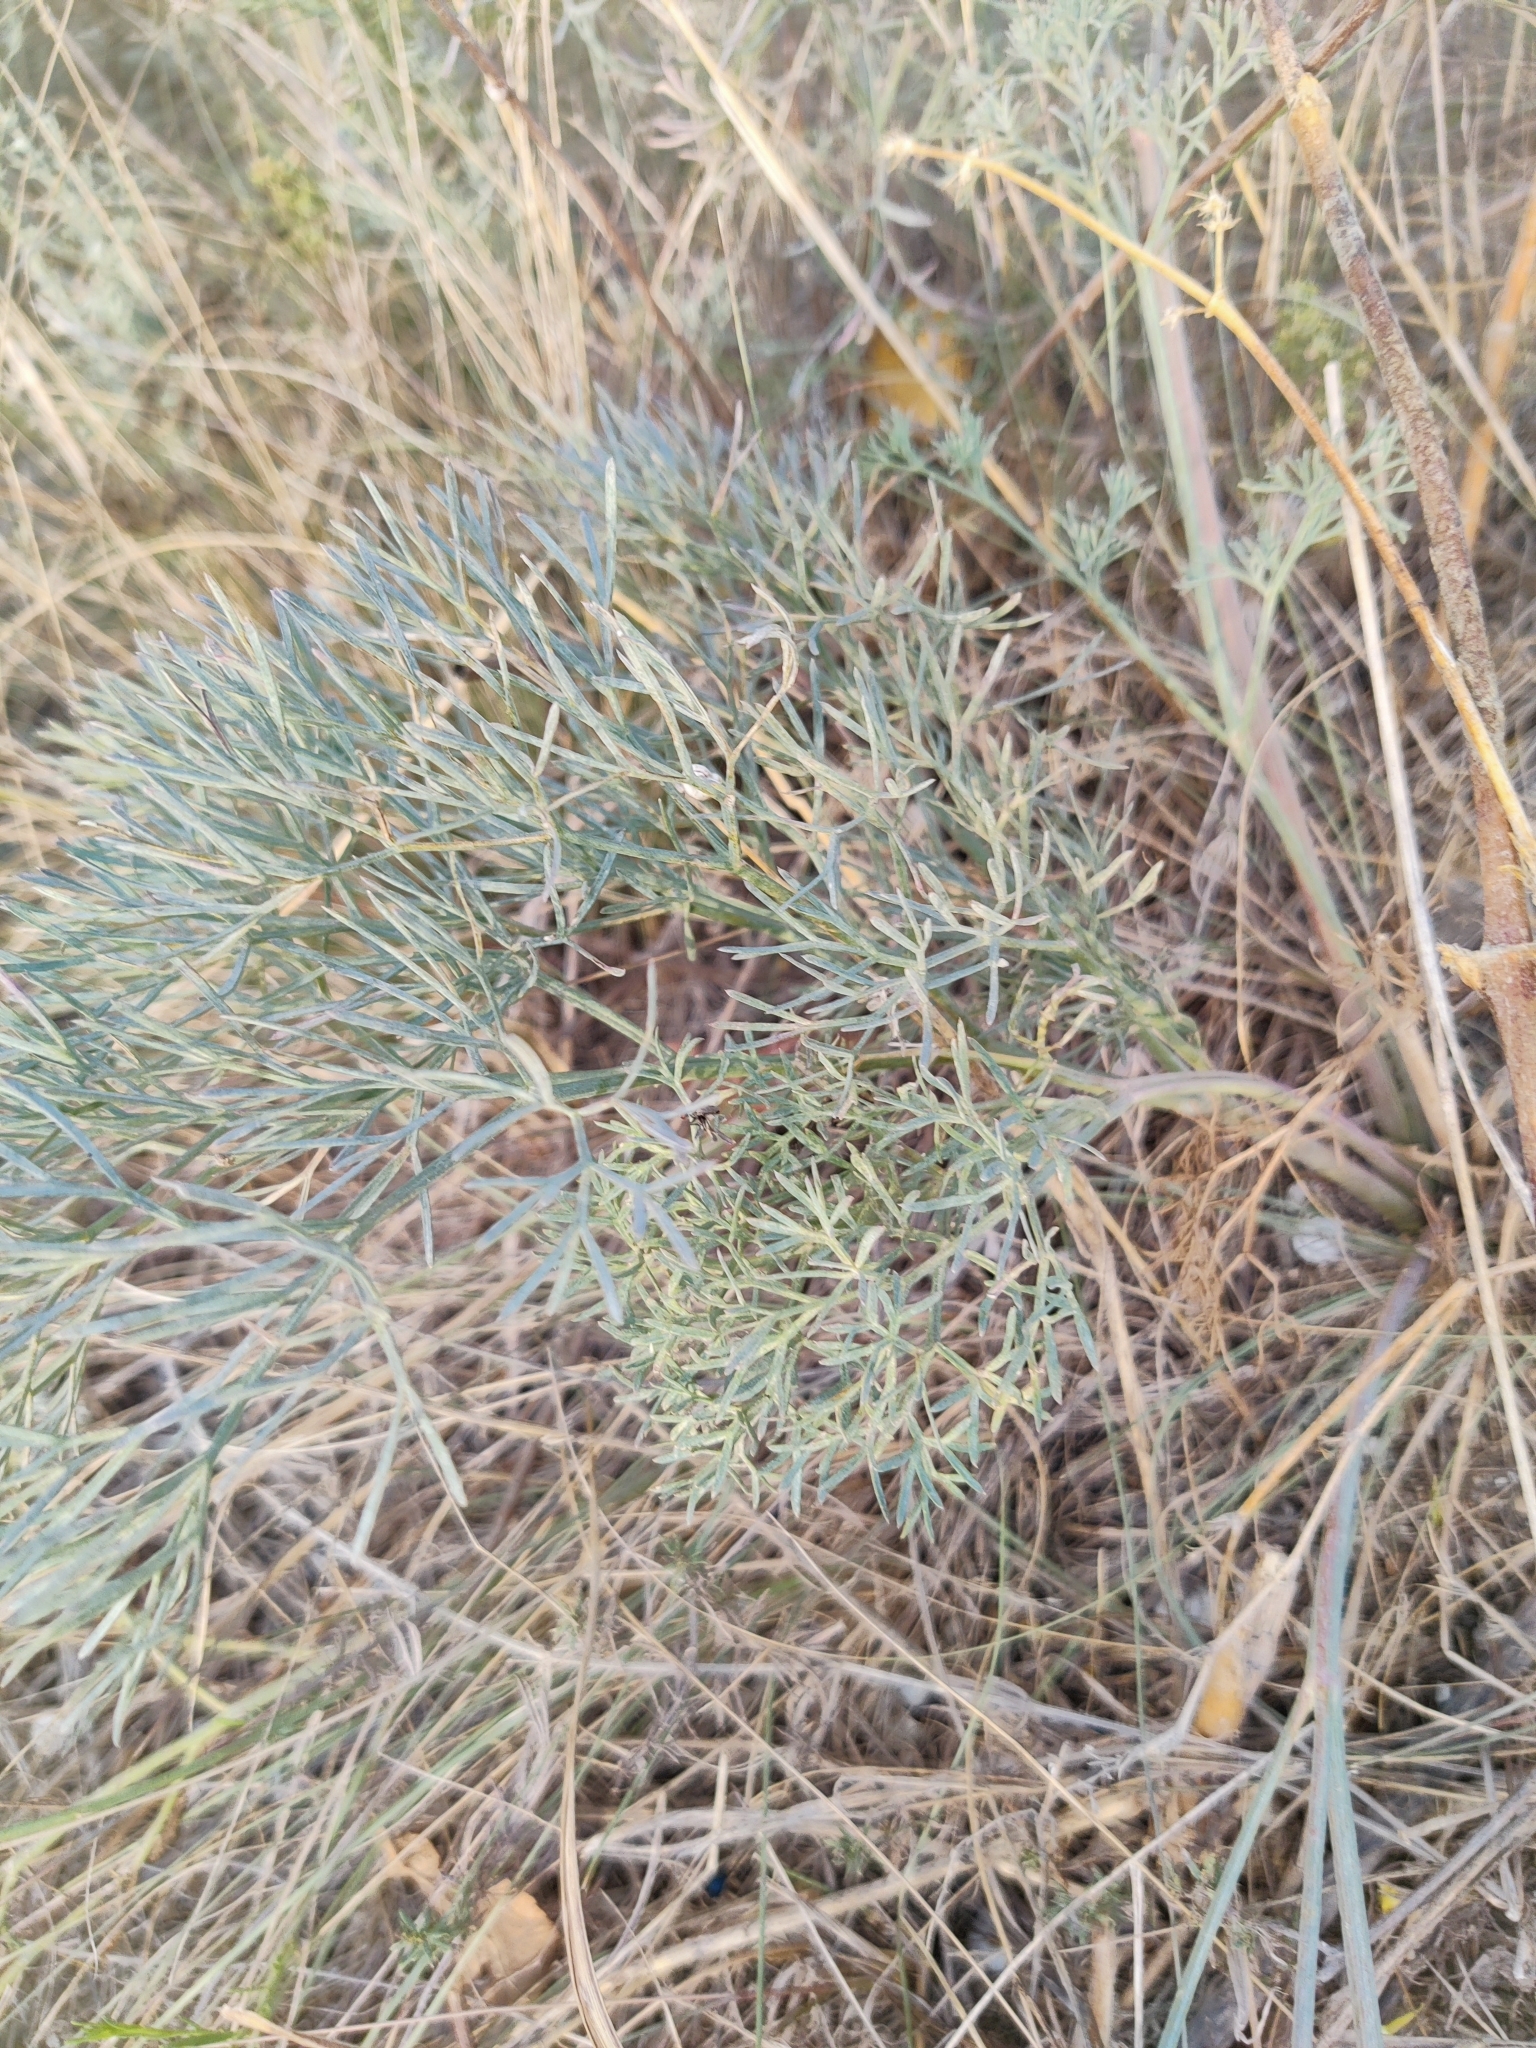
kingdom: Plantae
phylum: Tracheophyta
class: Magnoliopsida
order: Apiales
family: Apiaceae
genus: Seseli
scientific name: Seseli arenarium
